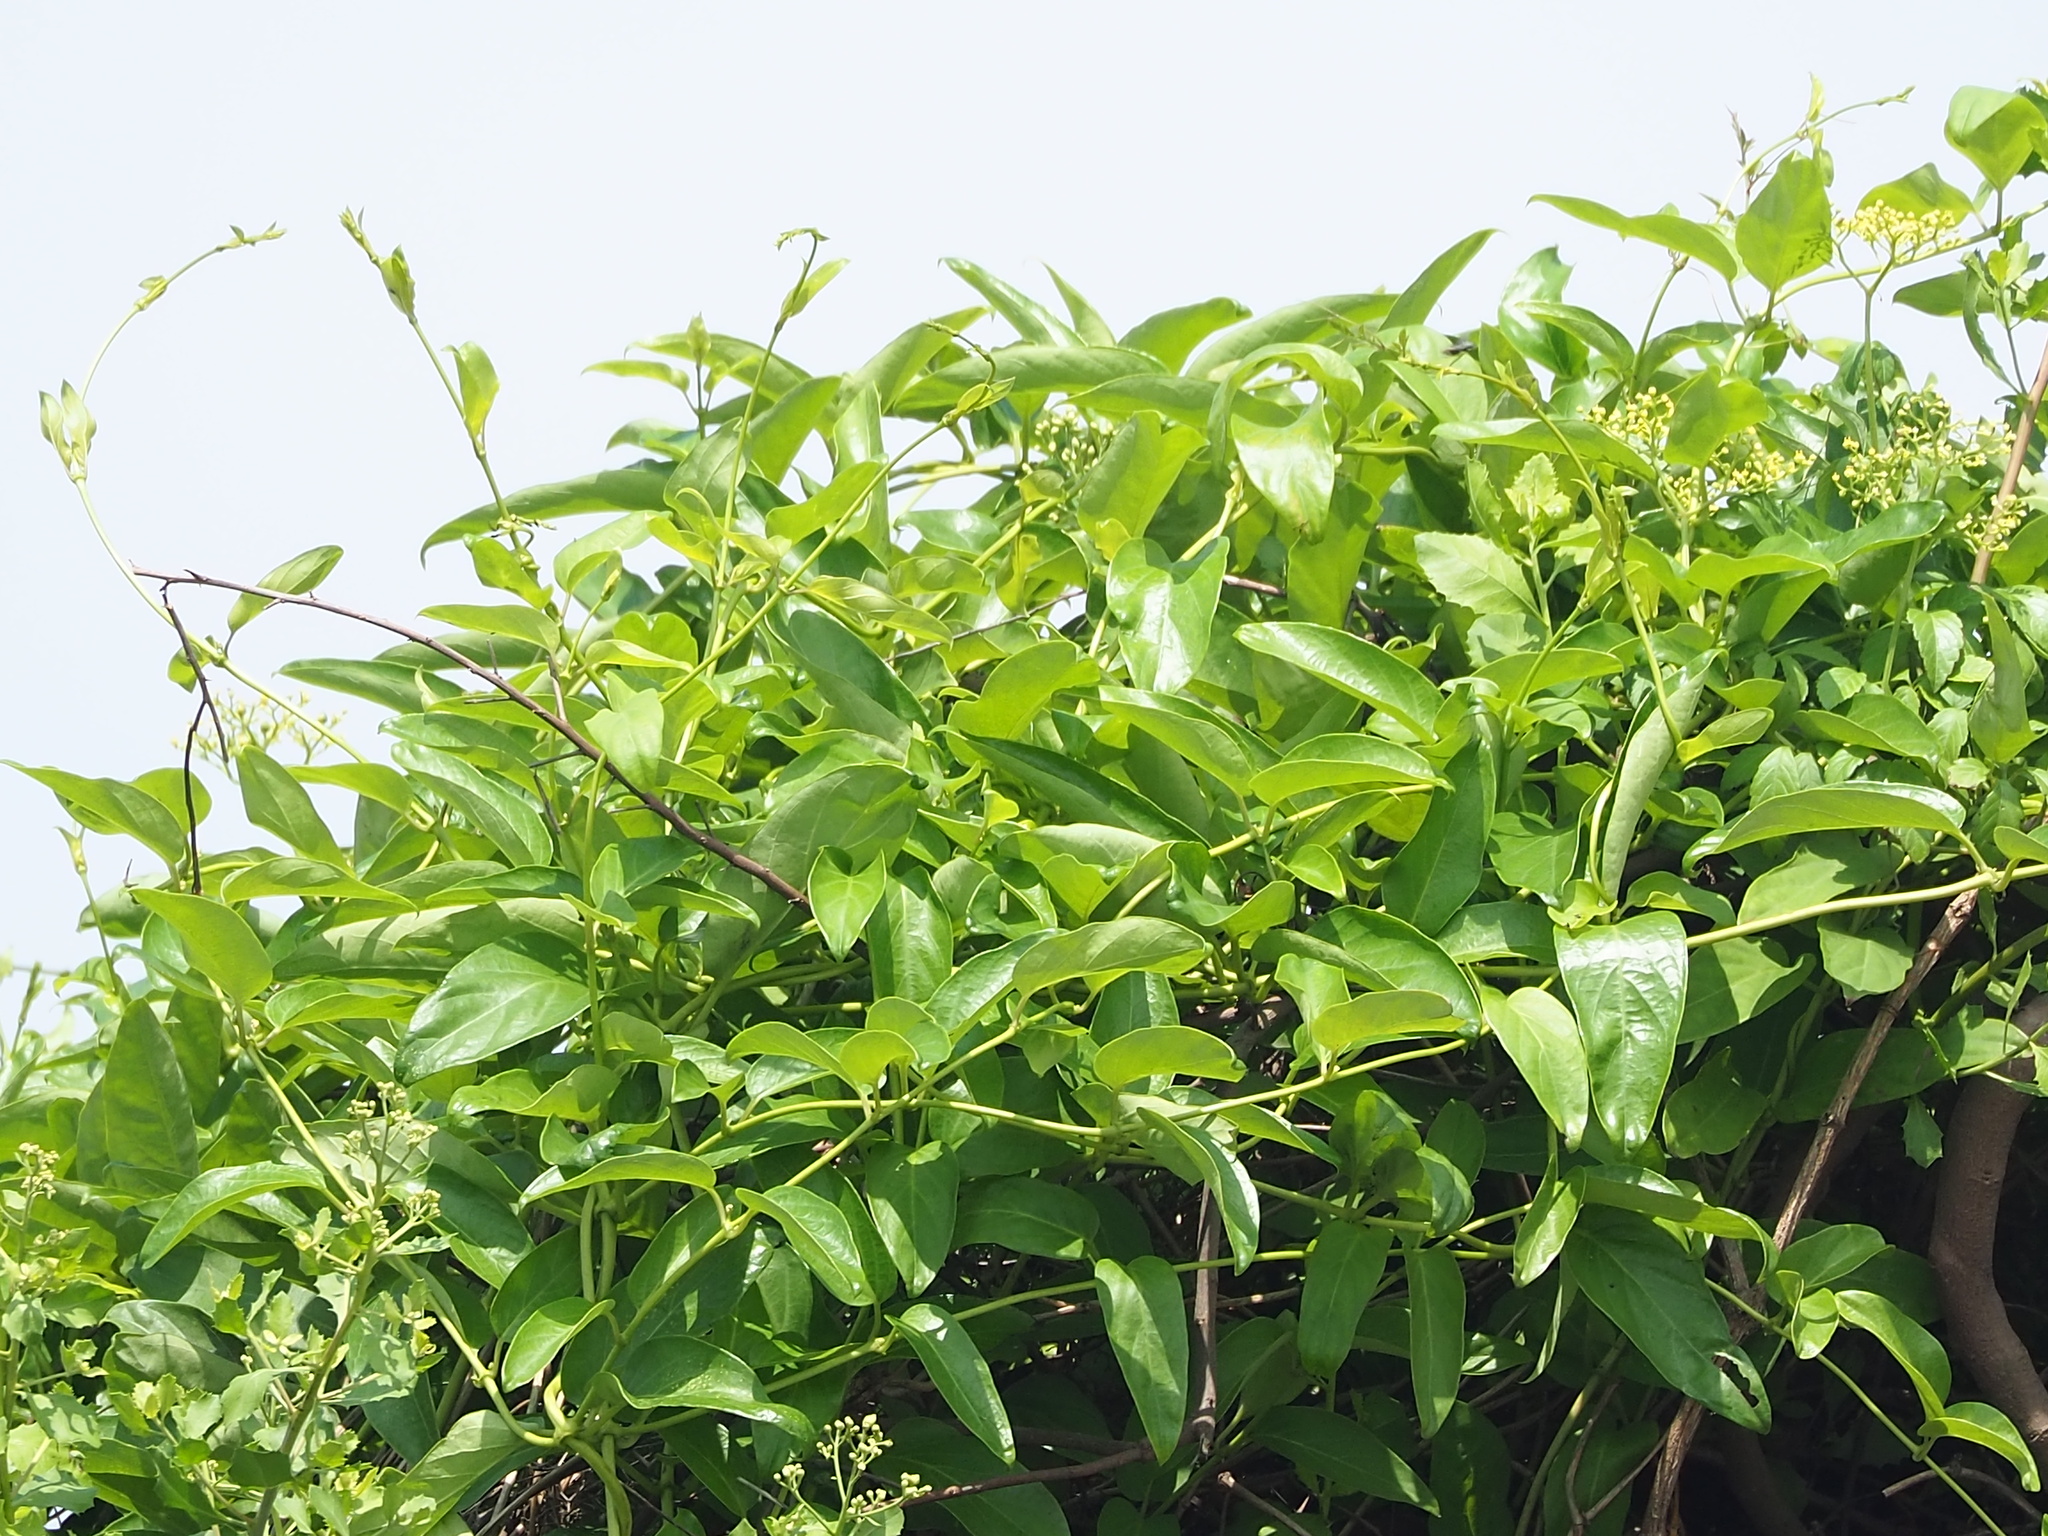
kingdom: Plantae
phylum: Tracheophyta
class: Magnoliopsida
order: Gentianales
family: Rubiaceae
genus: Paederia
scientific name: Paederia foetida
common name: Stinkvine
